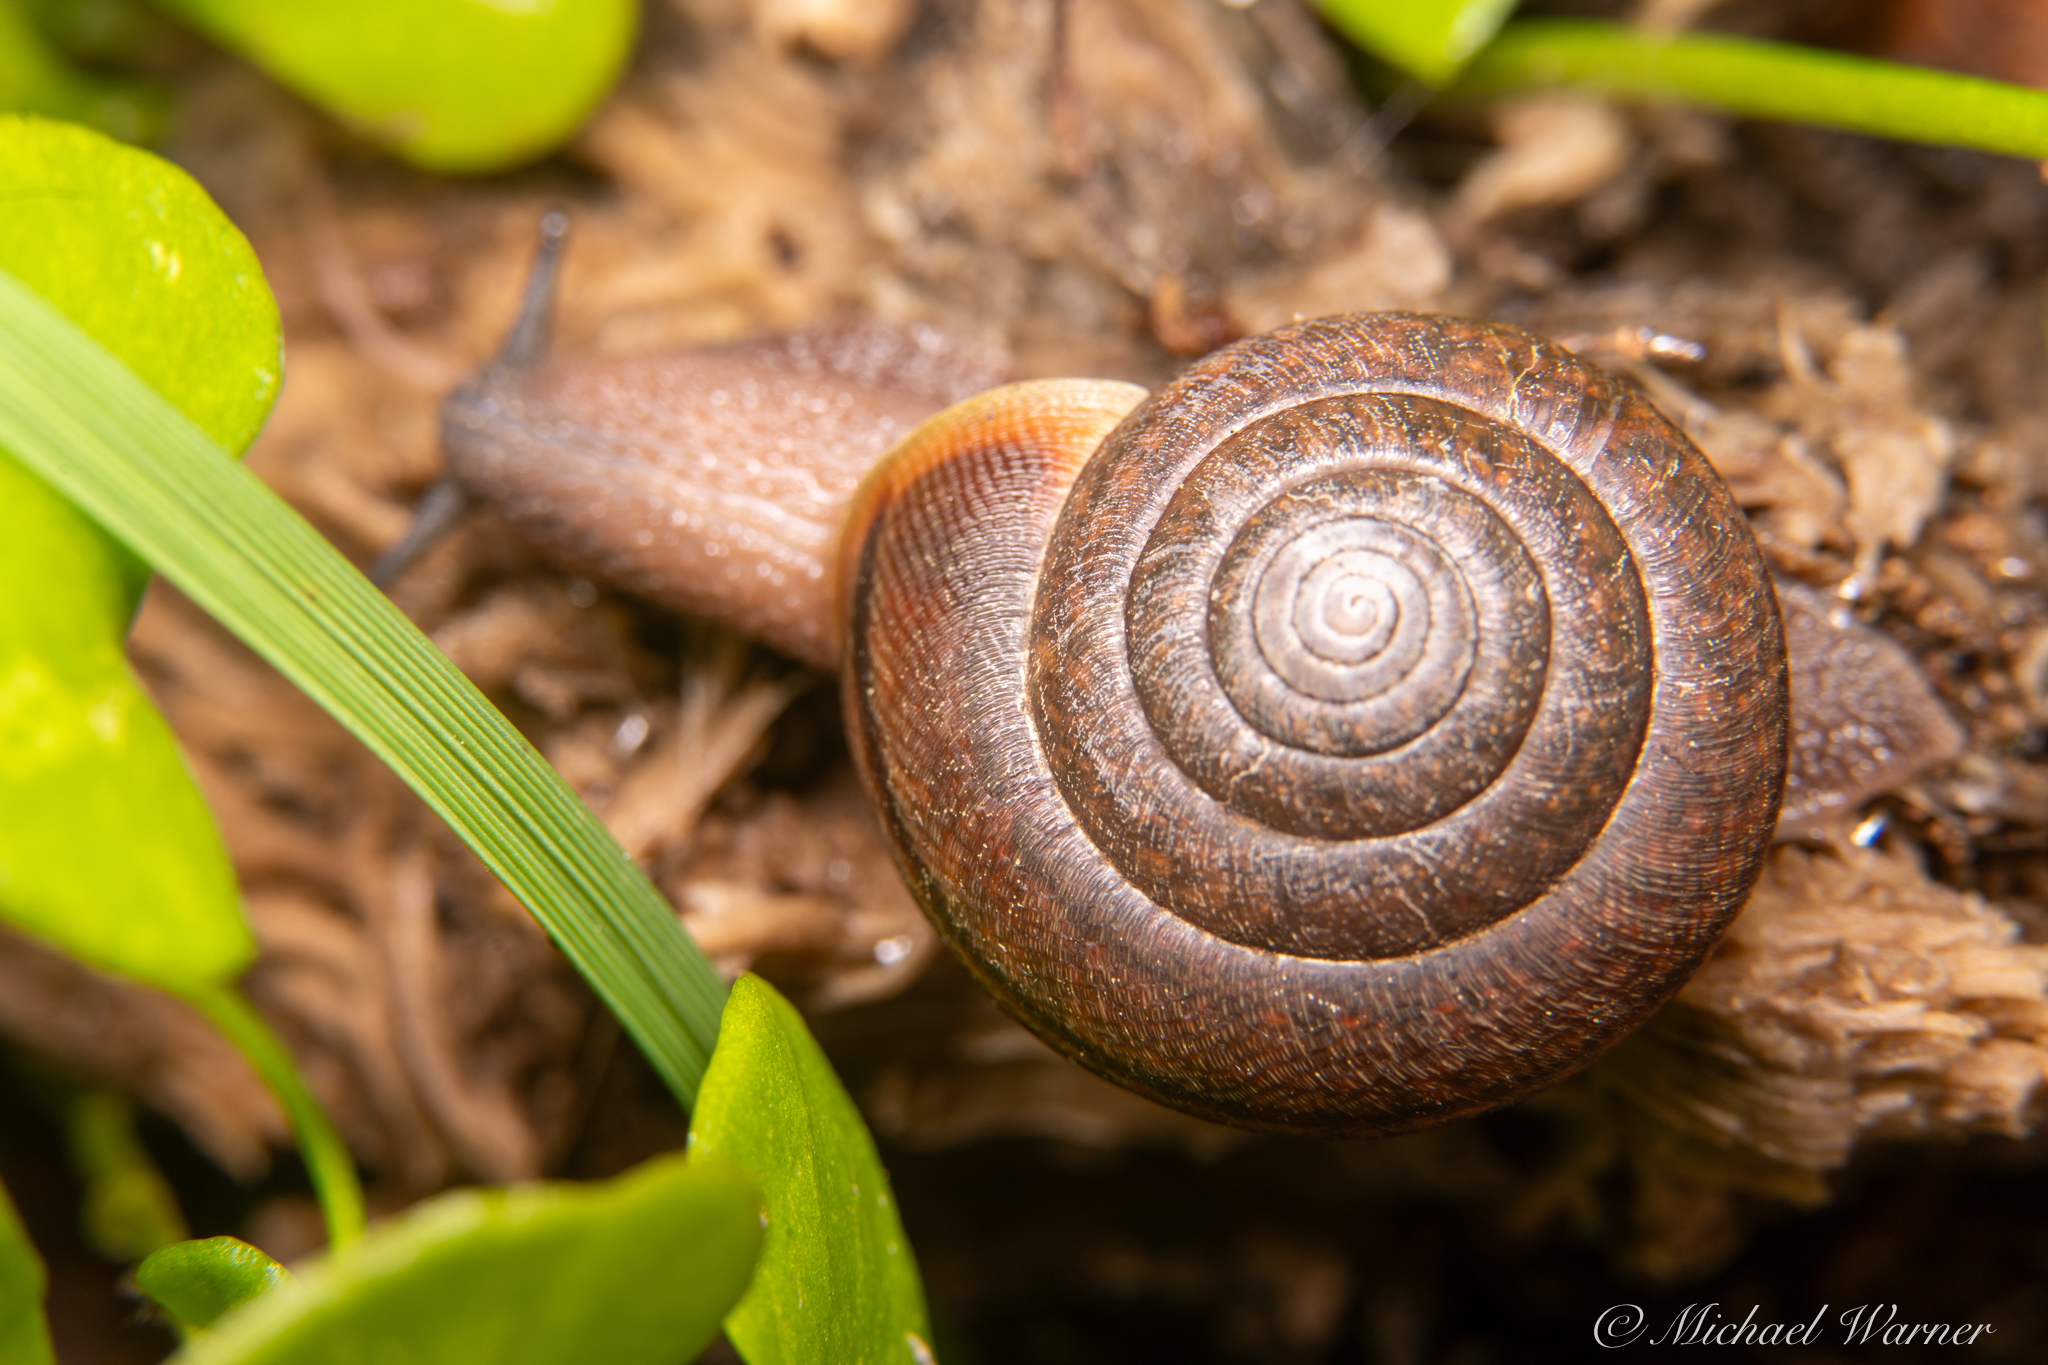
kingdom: Animalia
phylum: Mollusca
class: Gastropoda
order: Stylommatophora
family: Xanthonychidae
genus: Helminthoglypta
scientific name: Helminthoglypta diabloensis
